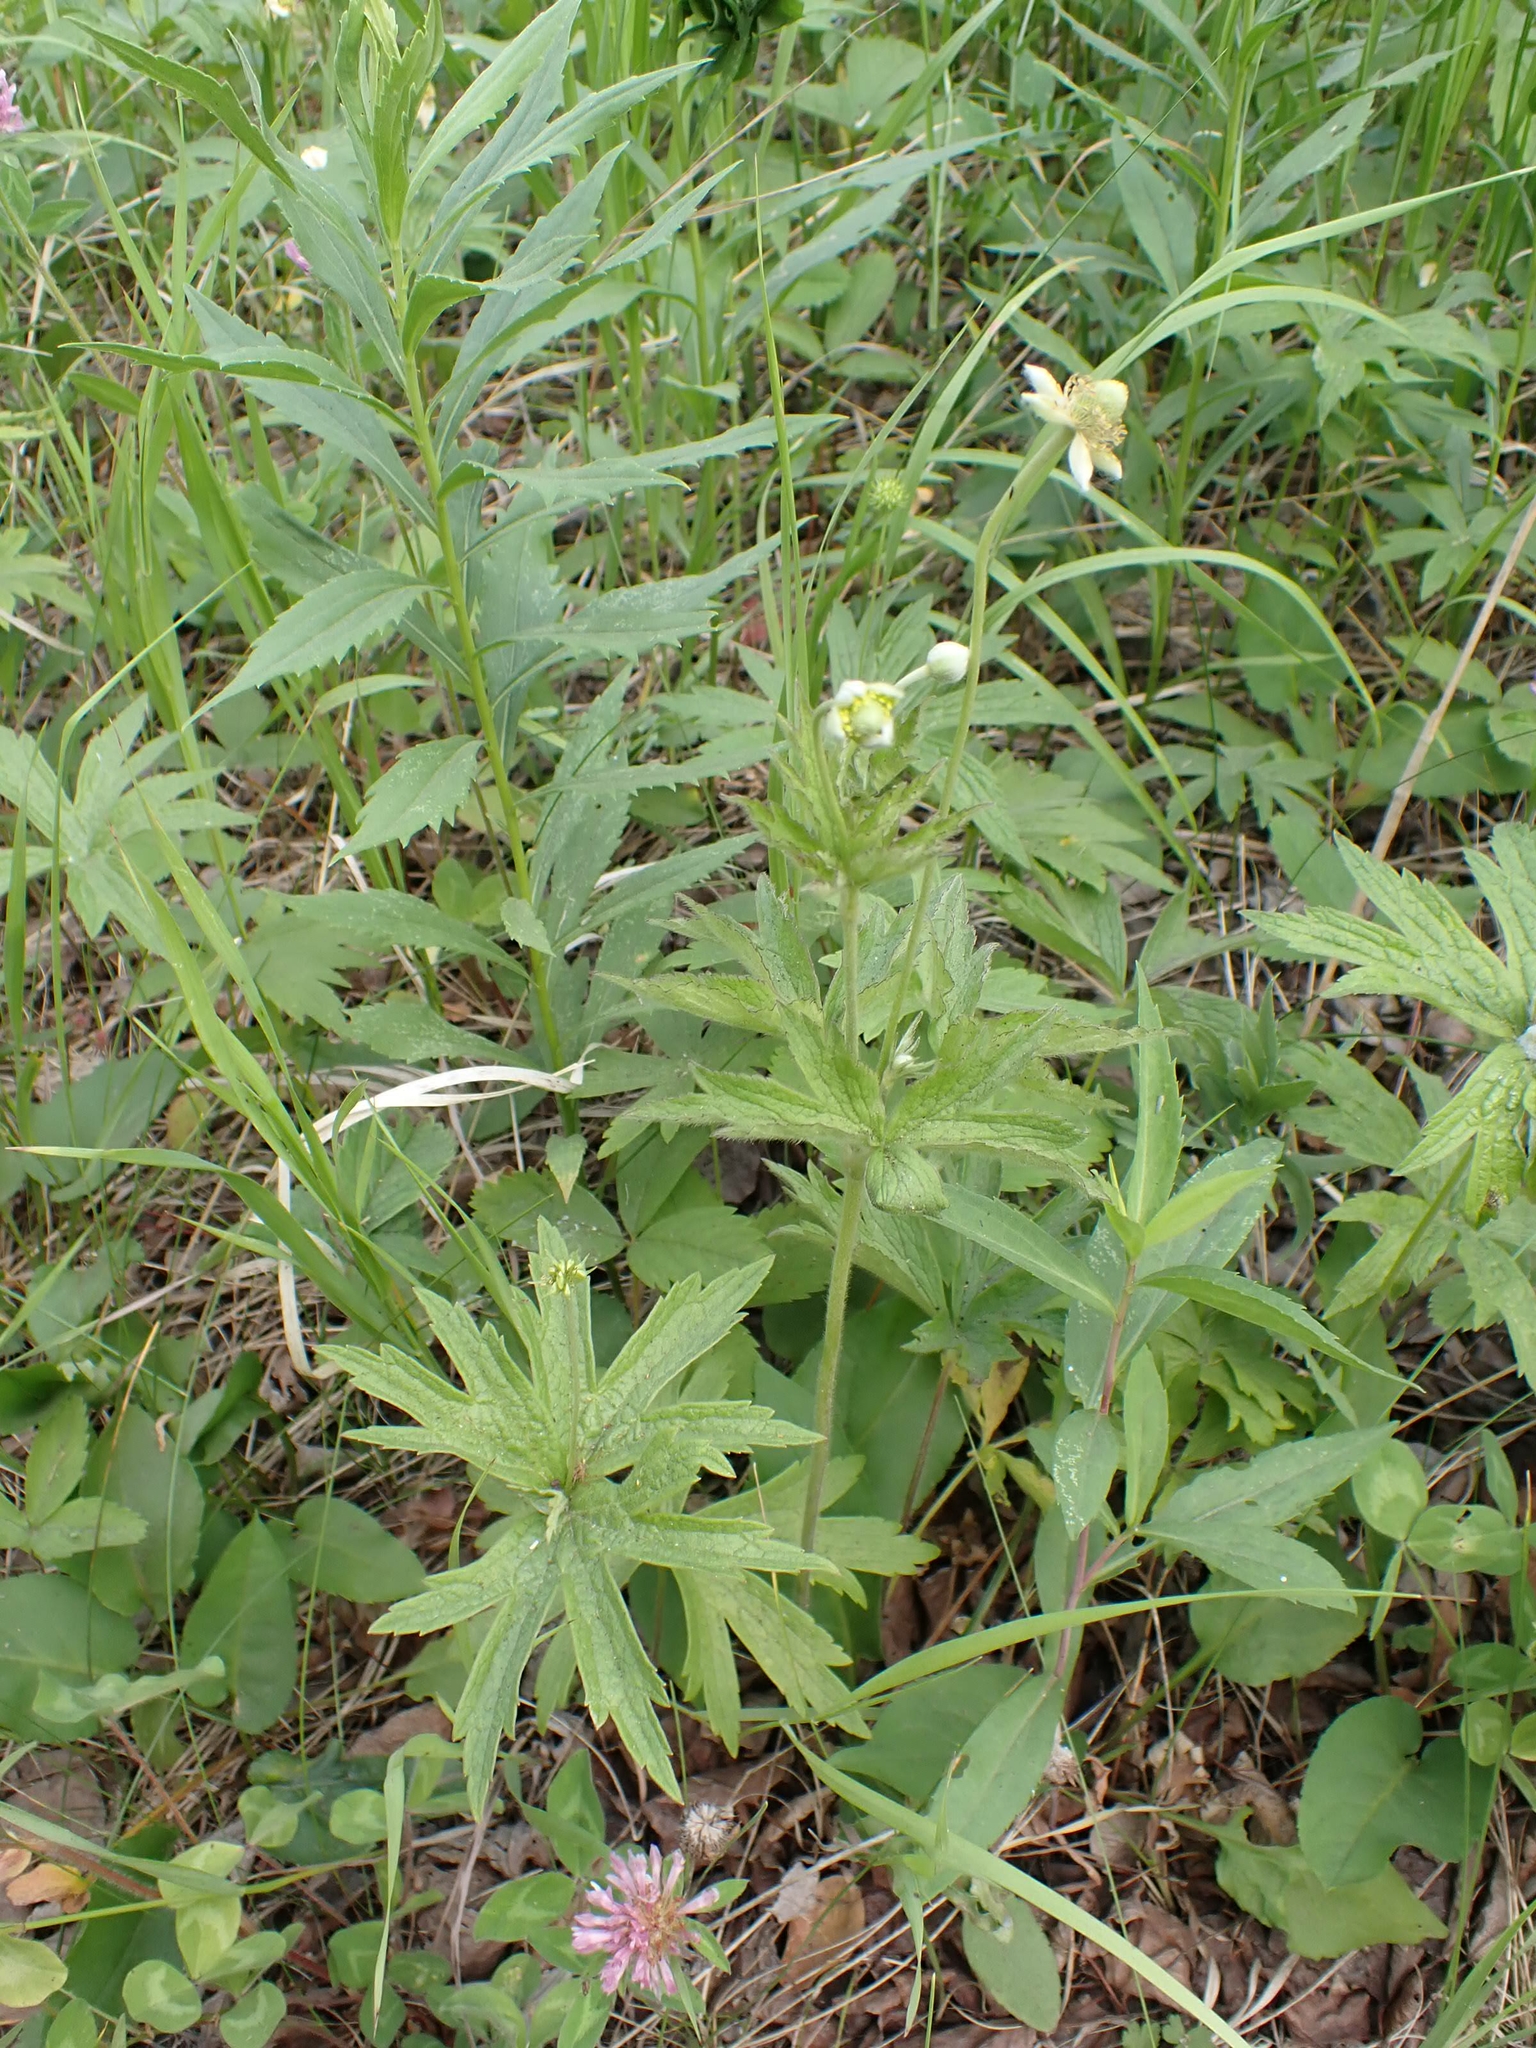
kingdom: Plantae
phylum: Tracheophyta
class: Magnoliopsida
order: Ranunculales
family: Ranunculaceae
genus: Anemone
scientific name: Anemone cylindrica
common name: Candle anemone
